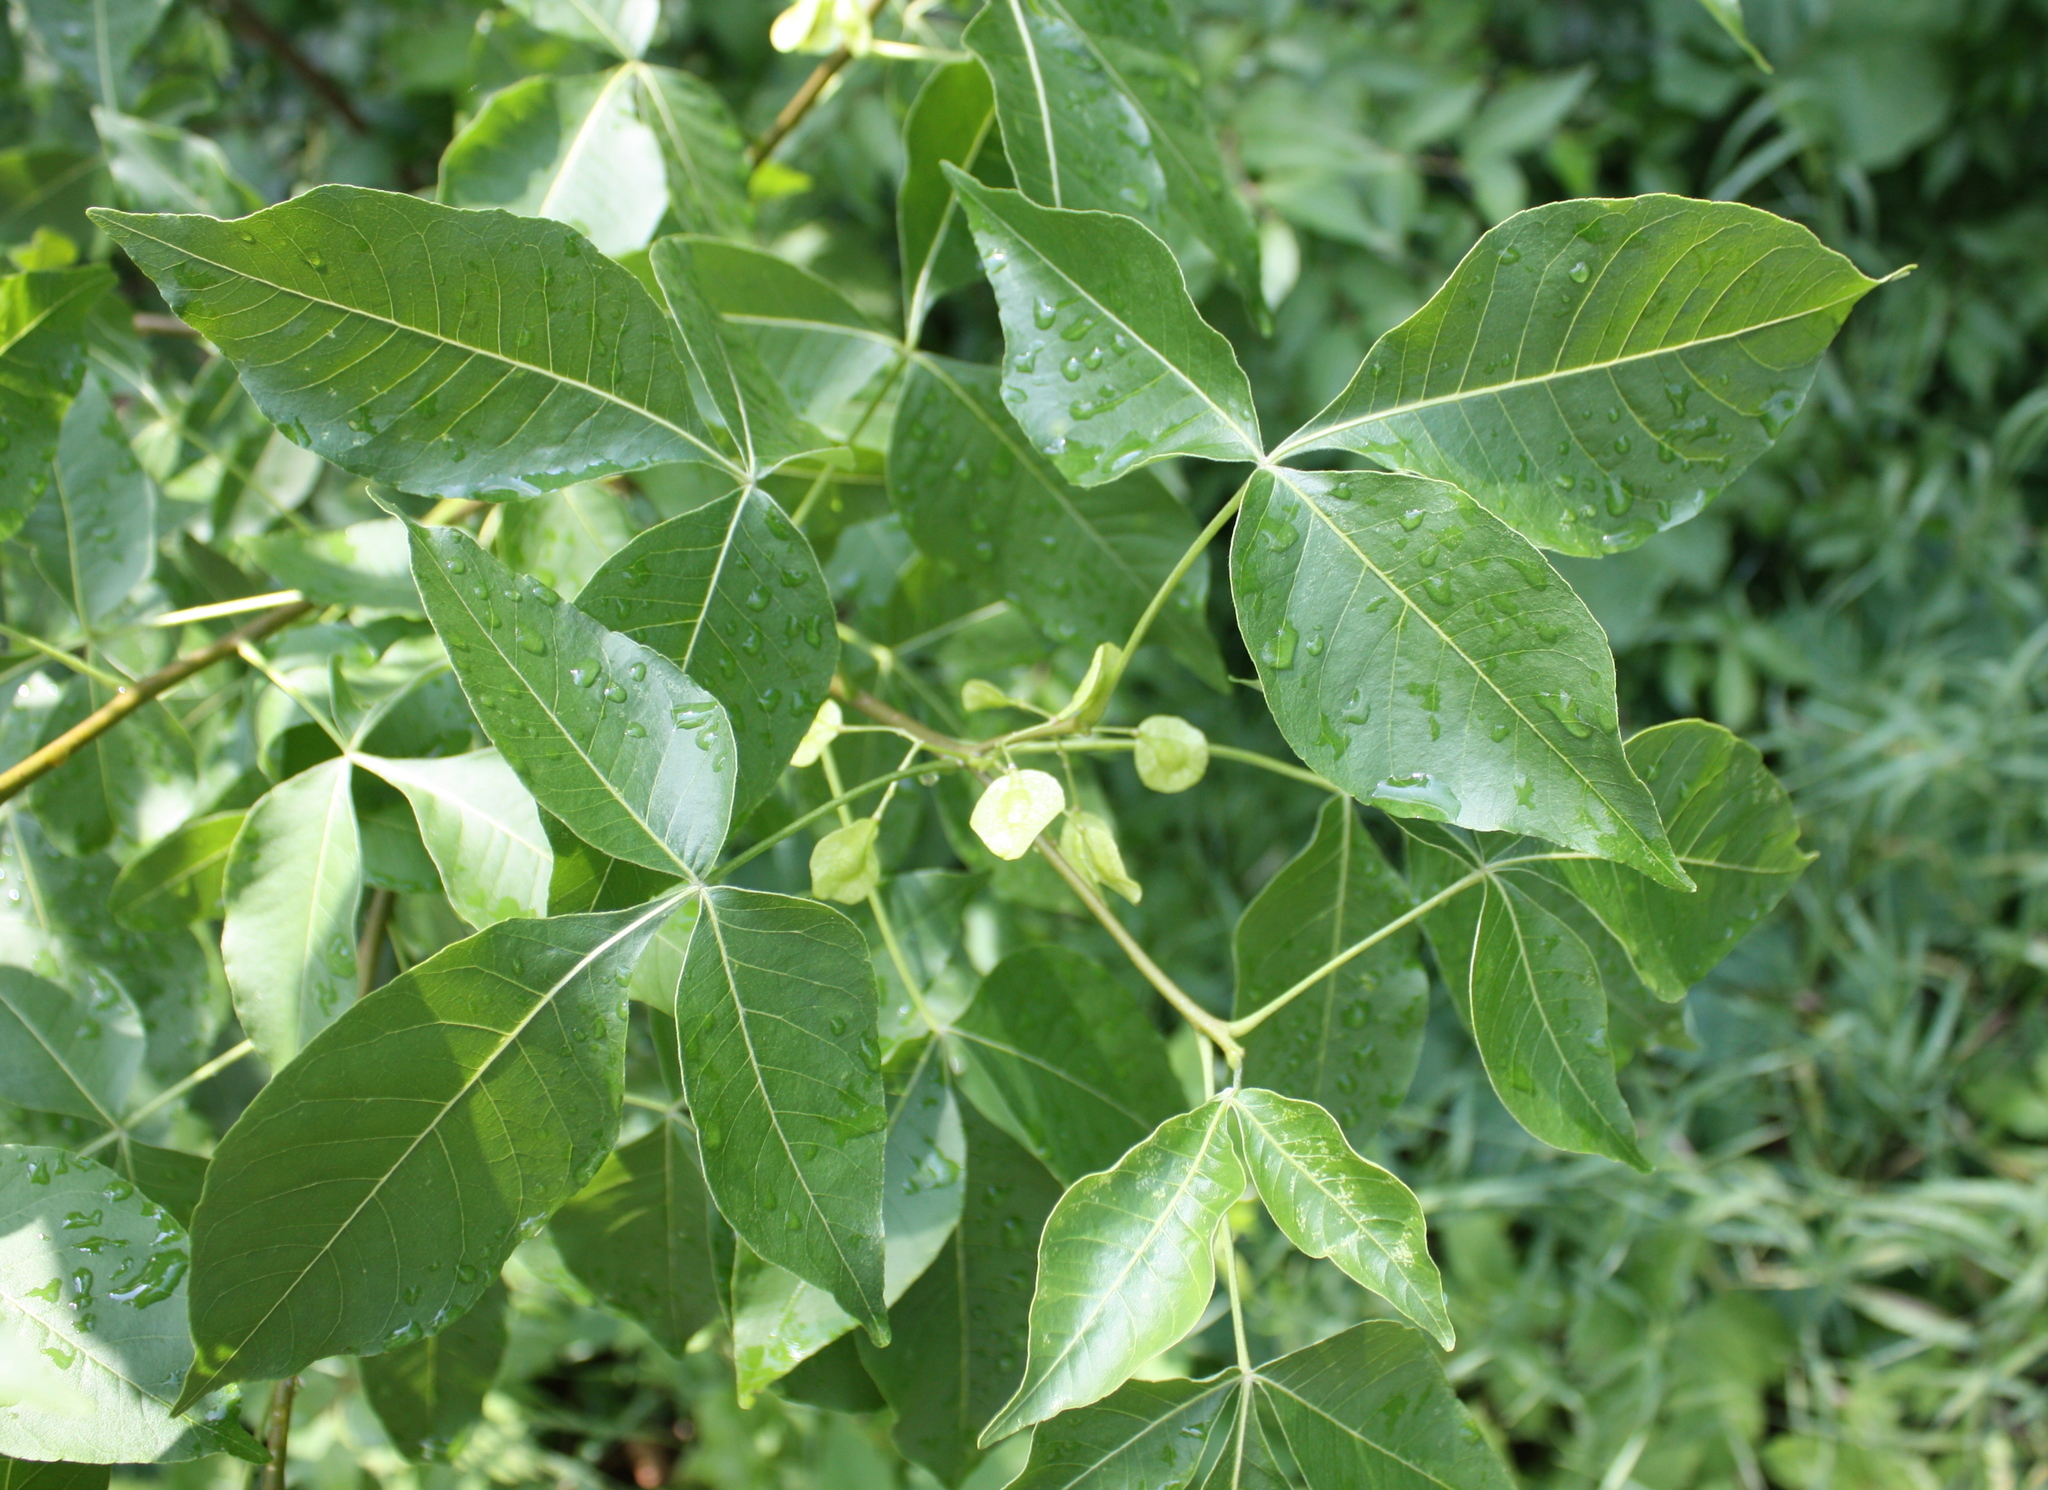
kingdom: Plantae
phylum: Tracheophyta
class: Magnoliopsida
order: Sapindales
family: Rutaceae
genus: Ptelea
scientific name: Ptelea trifoliata
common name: Common hop-tree
